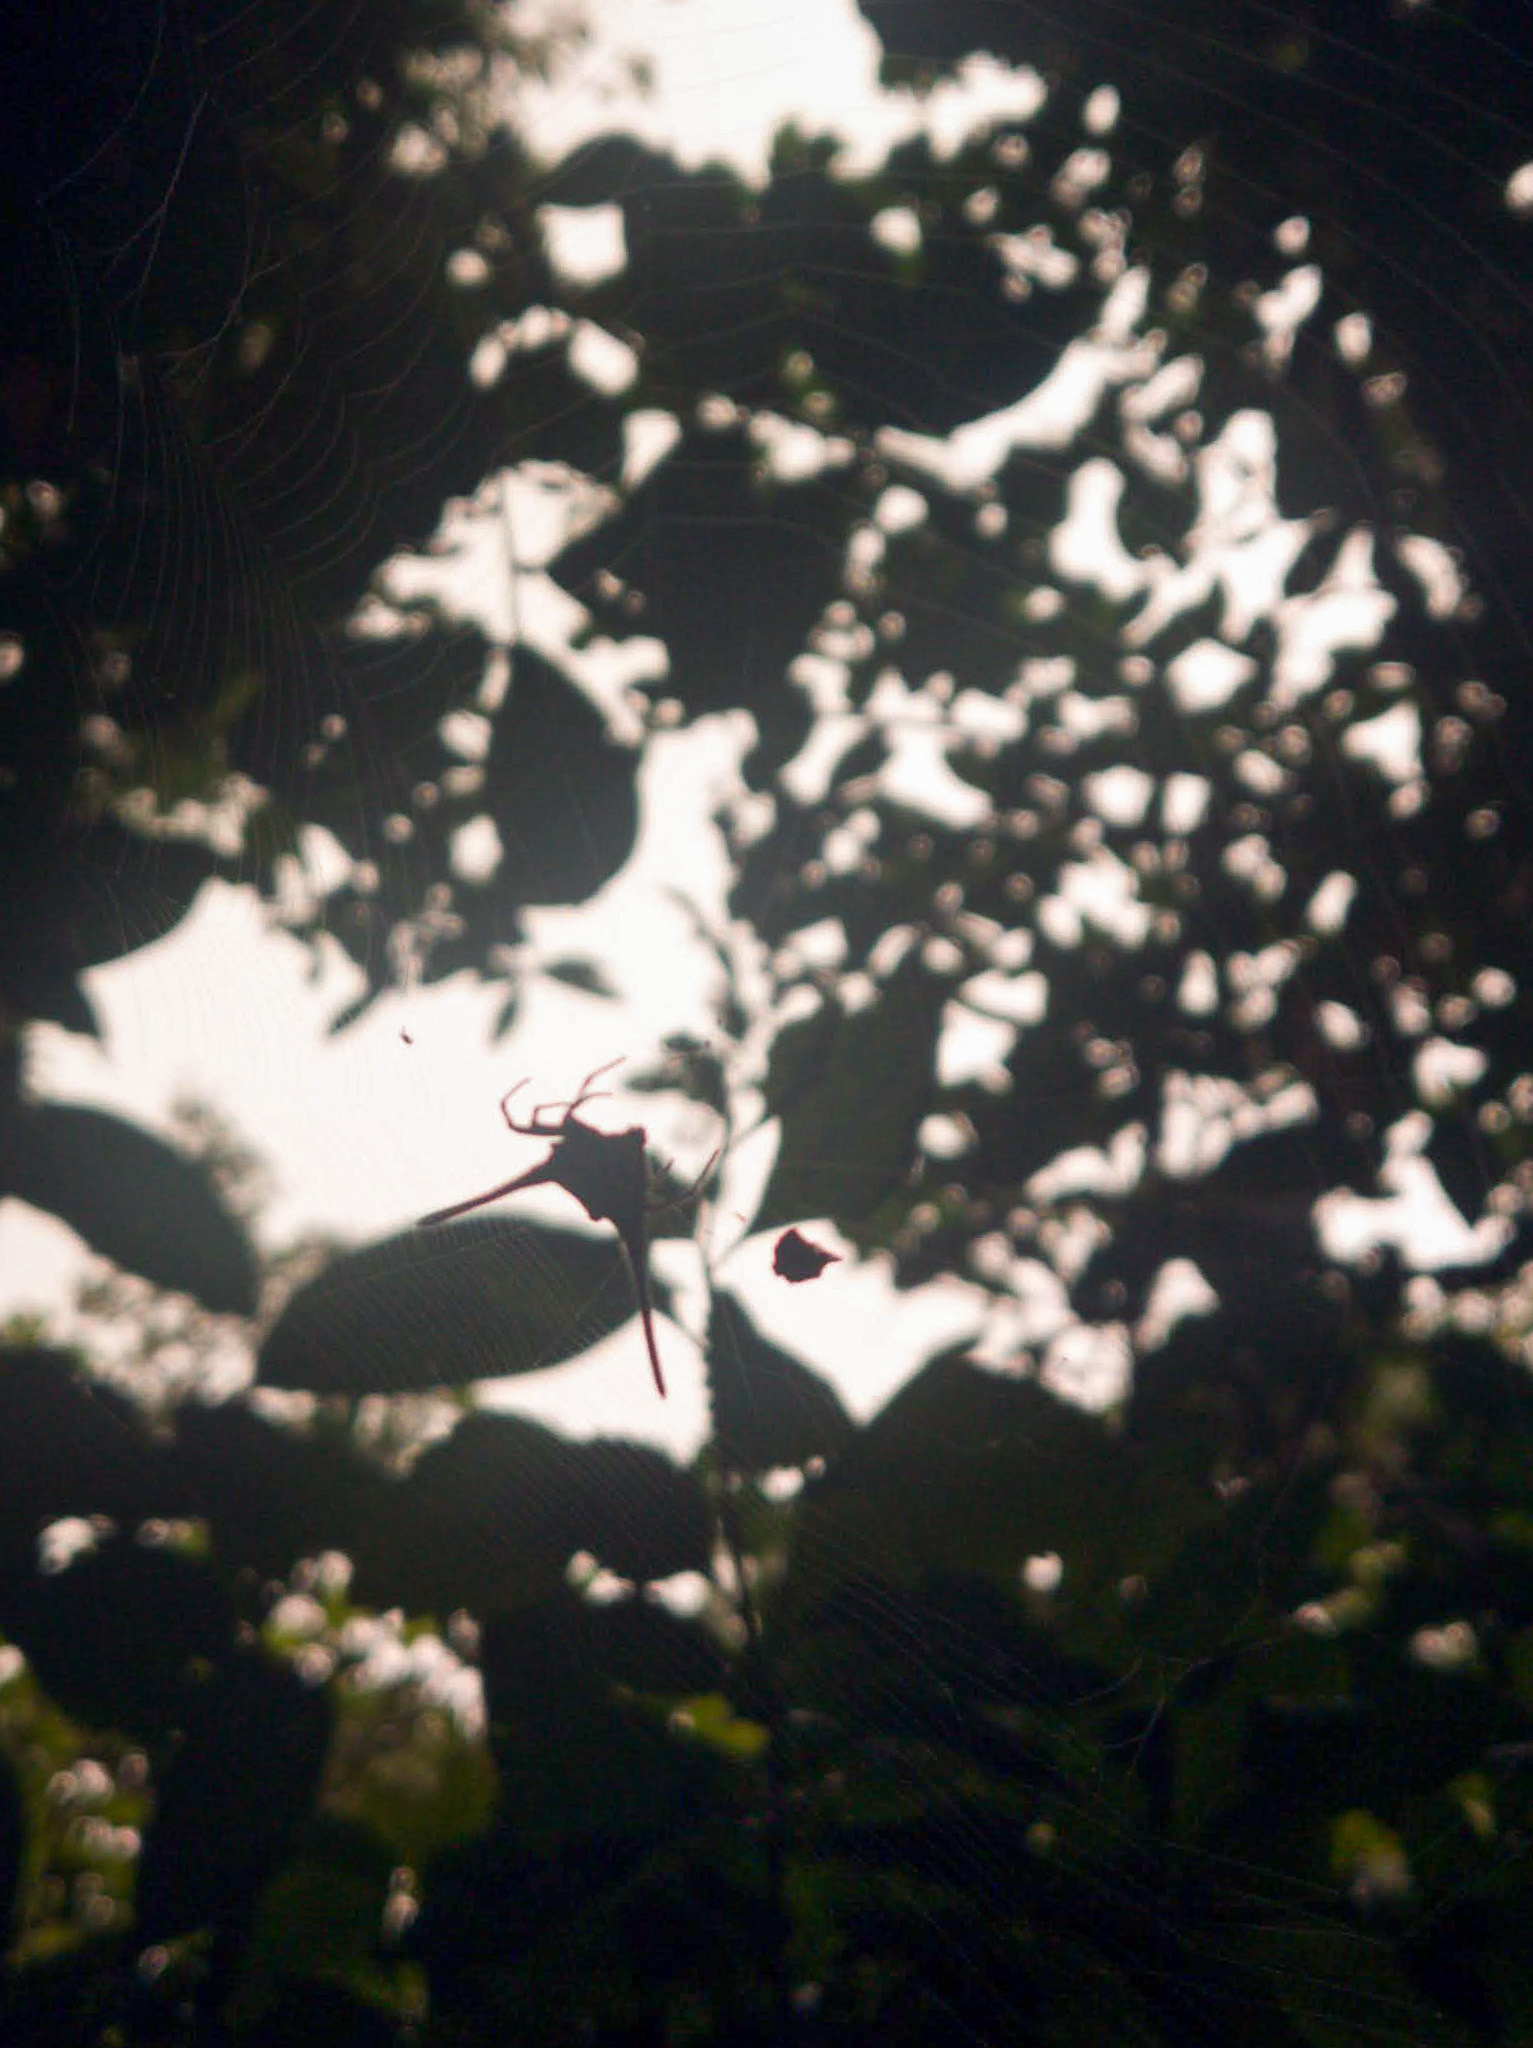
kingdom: Animalia
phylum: Arthropoda
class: Arachnida
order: Araneae
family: Araneidae
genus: Gasteracantha
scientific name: Gasteracantha dalyi
